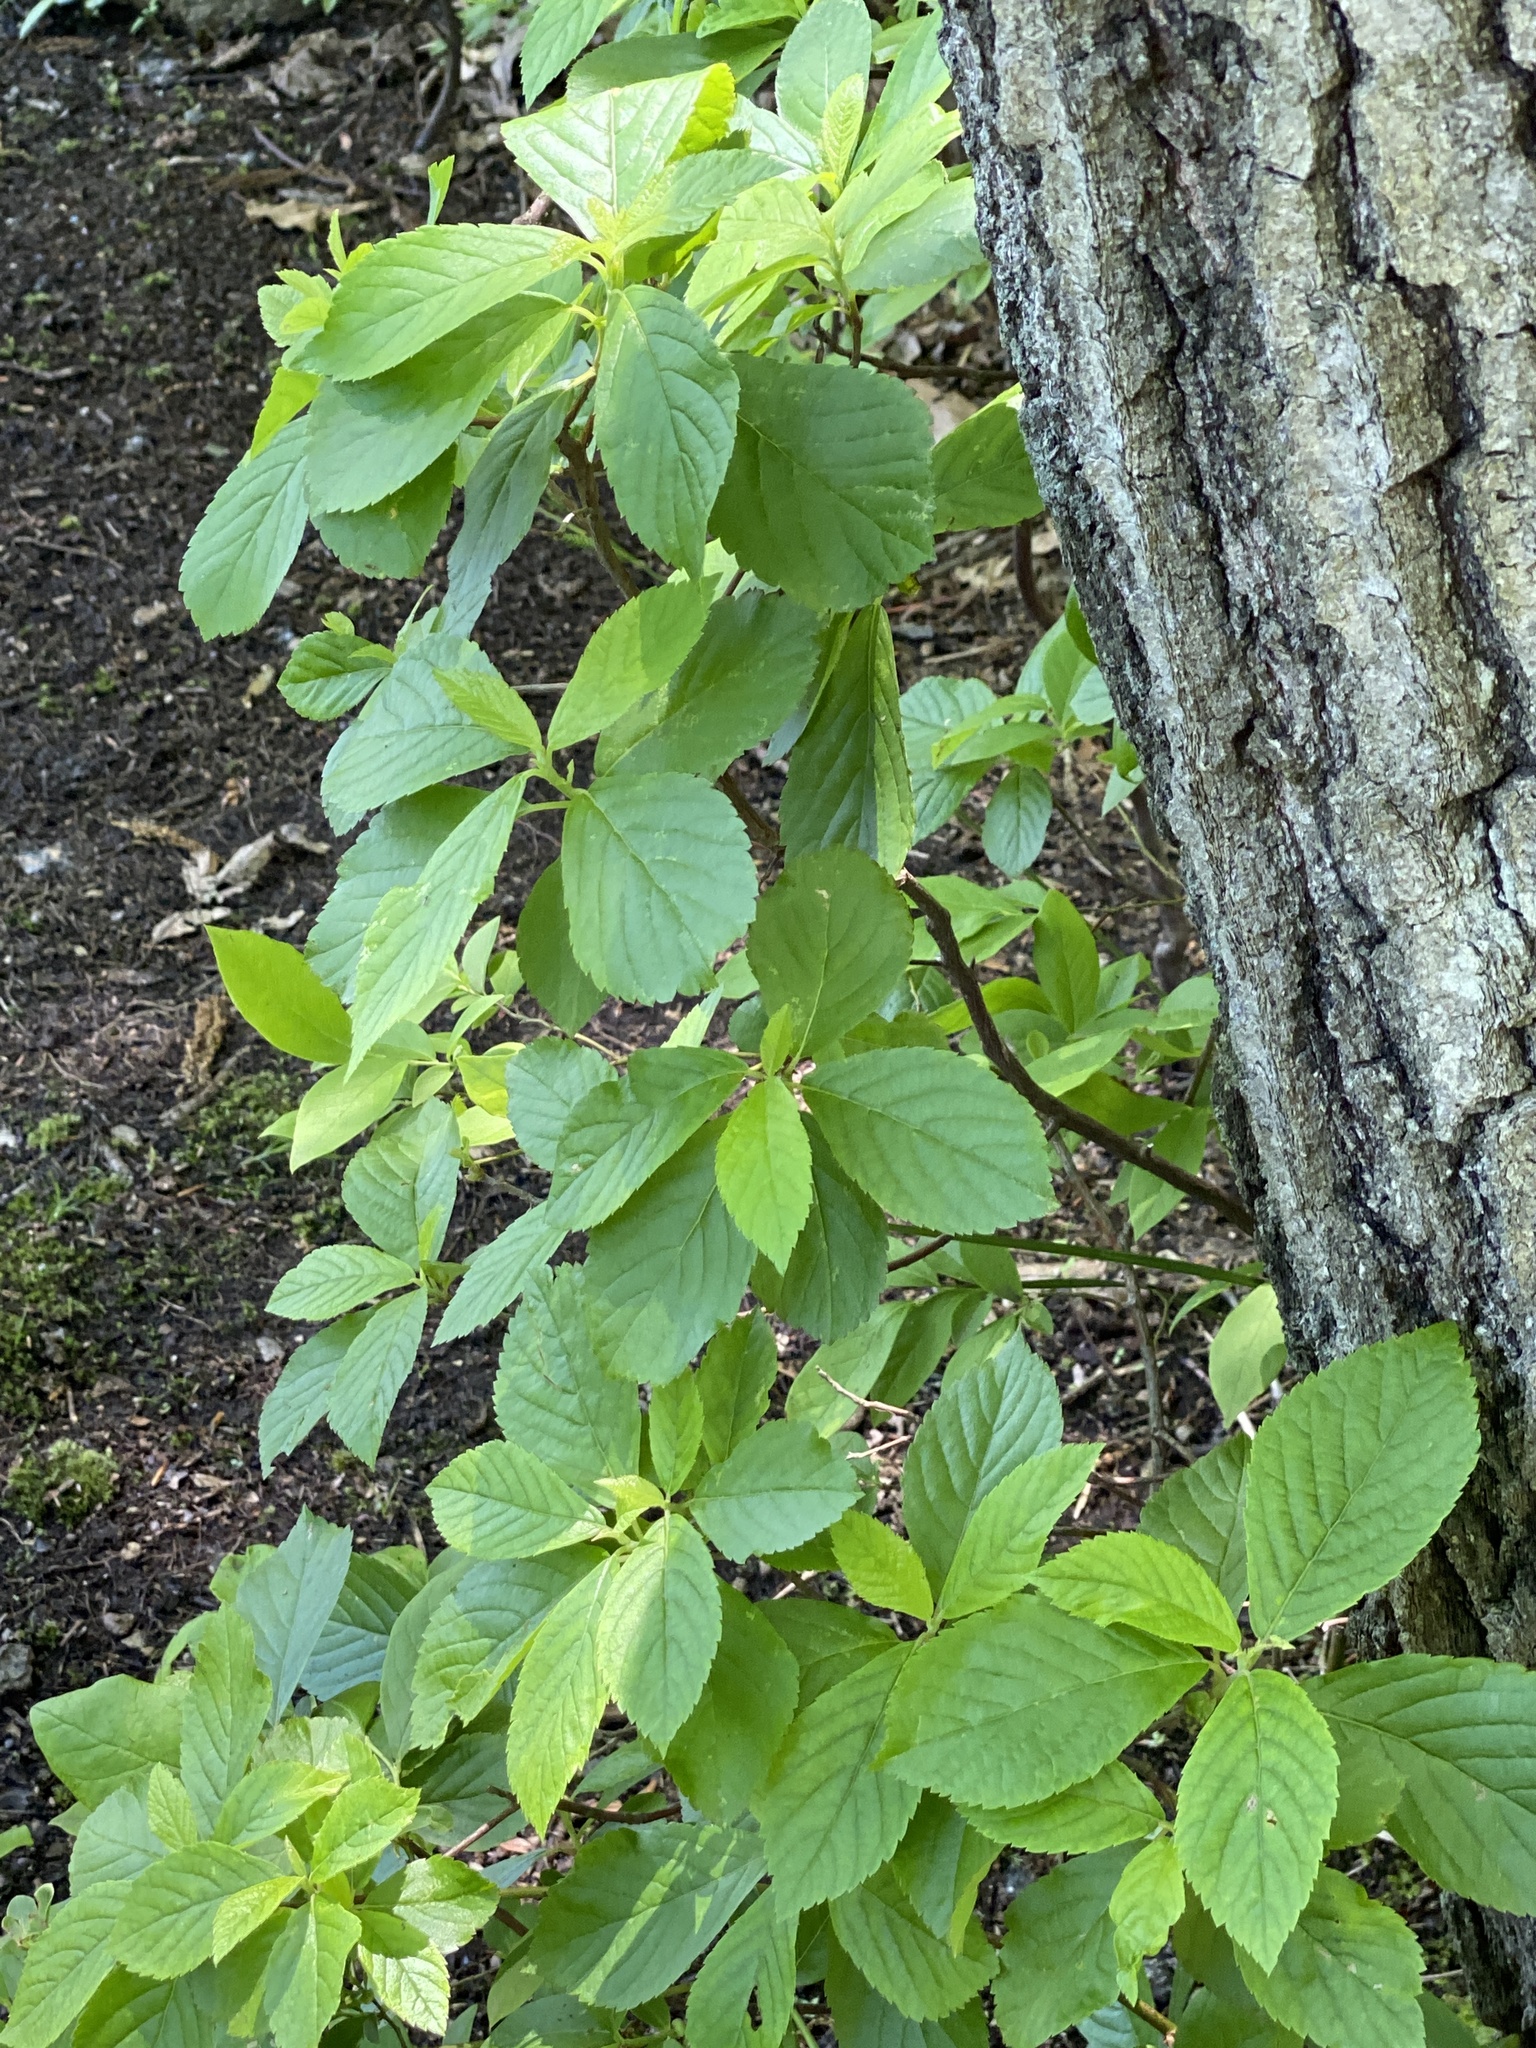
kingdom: Plantae
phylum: Tracheophyta
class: Magnoliopsida
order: Ericales
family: Clethraceae
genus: Clethra
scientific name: Clethra alnifolia
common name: Sweet pepperbush
